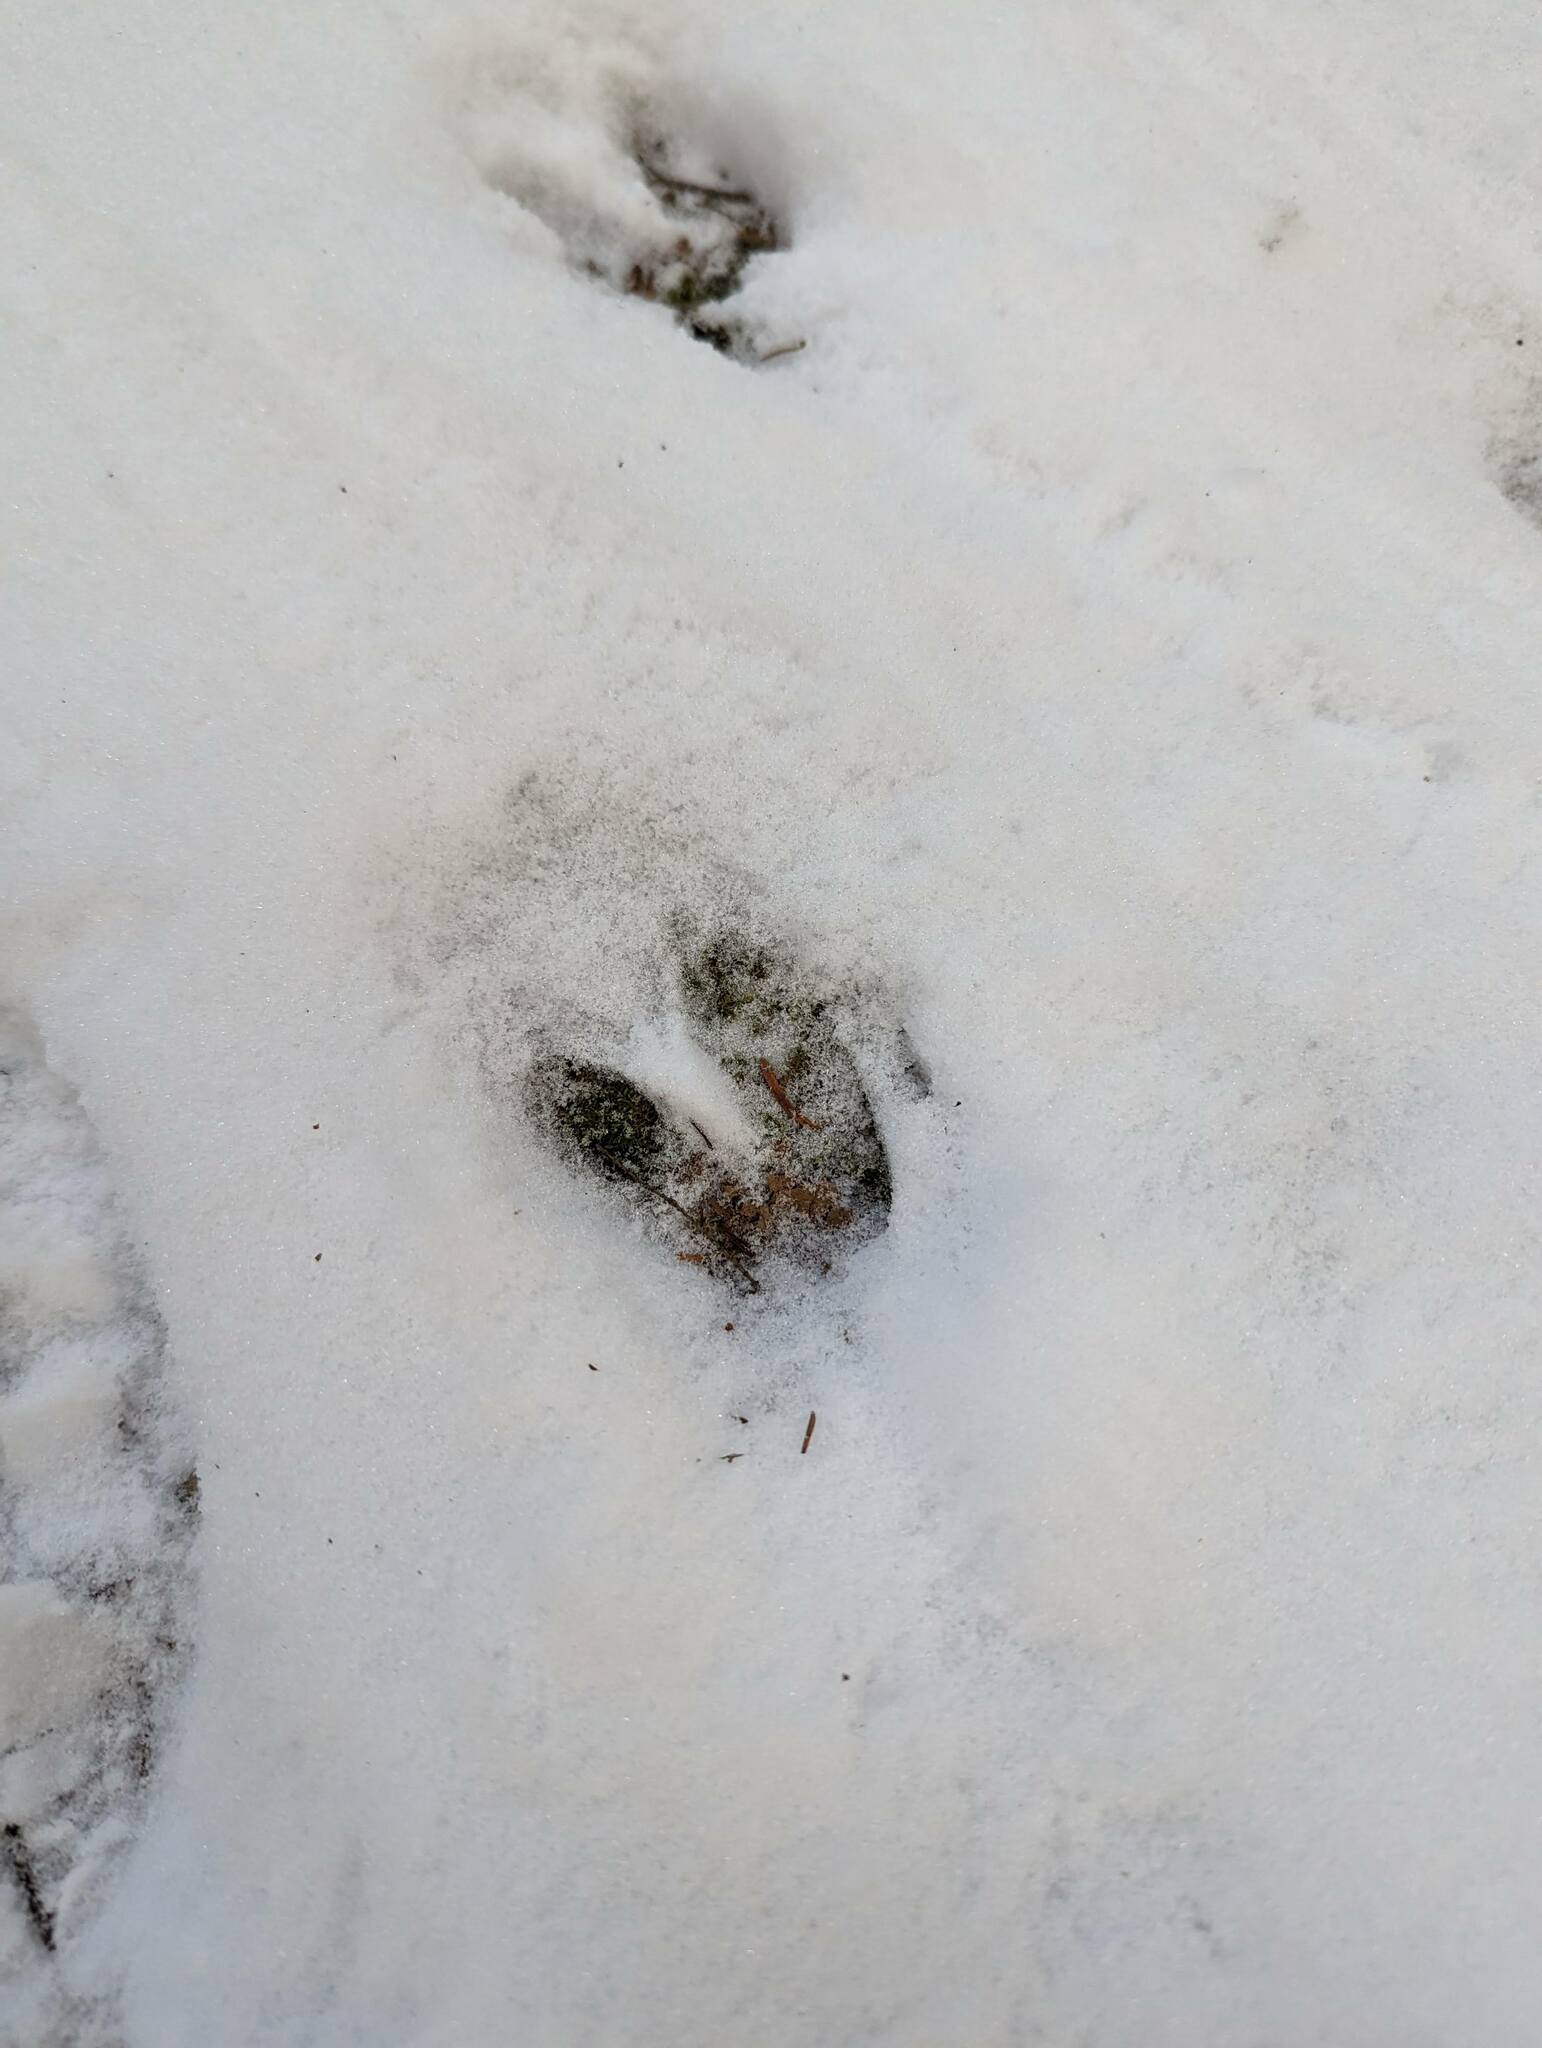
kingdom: Animalia
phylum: Chordata
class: Mammalia
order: Artiodactyla
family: Cervidae
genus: Odocoileus
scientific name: Odocoileus virginianus
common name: White-tailed deer
